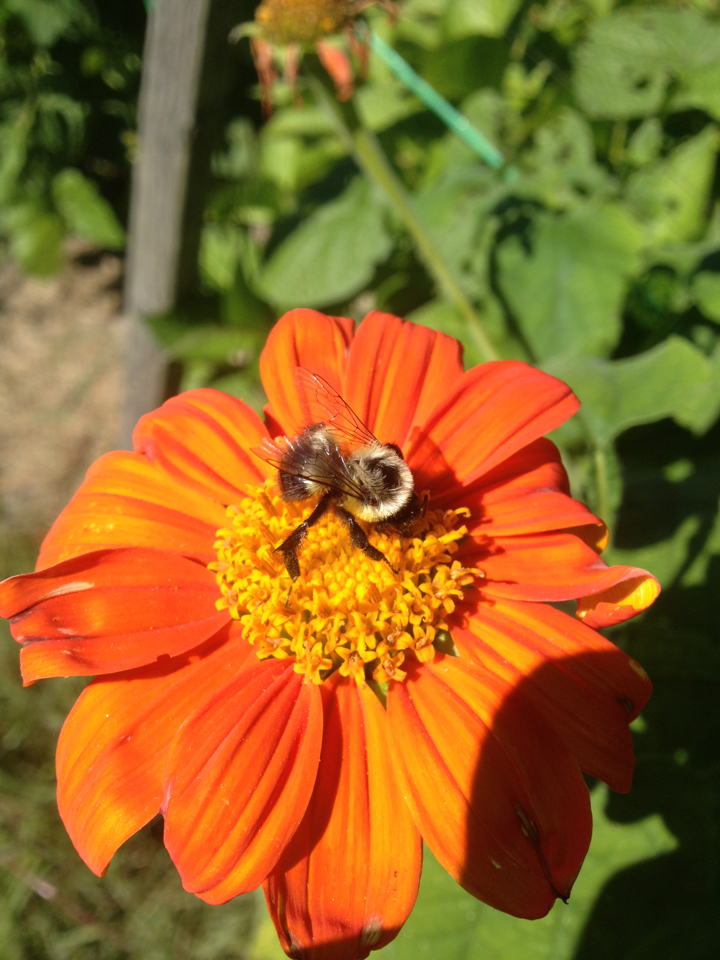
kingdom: Animalia
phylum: Arthropoda
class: Insecta
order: Hymenoptera
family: Apidae
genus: Bombus
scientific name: Bombus impatiens
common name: Common eastern bumble bee
